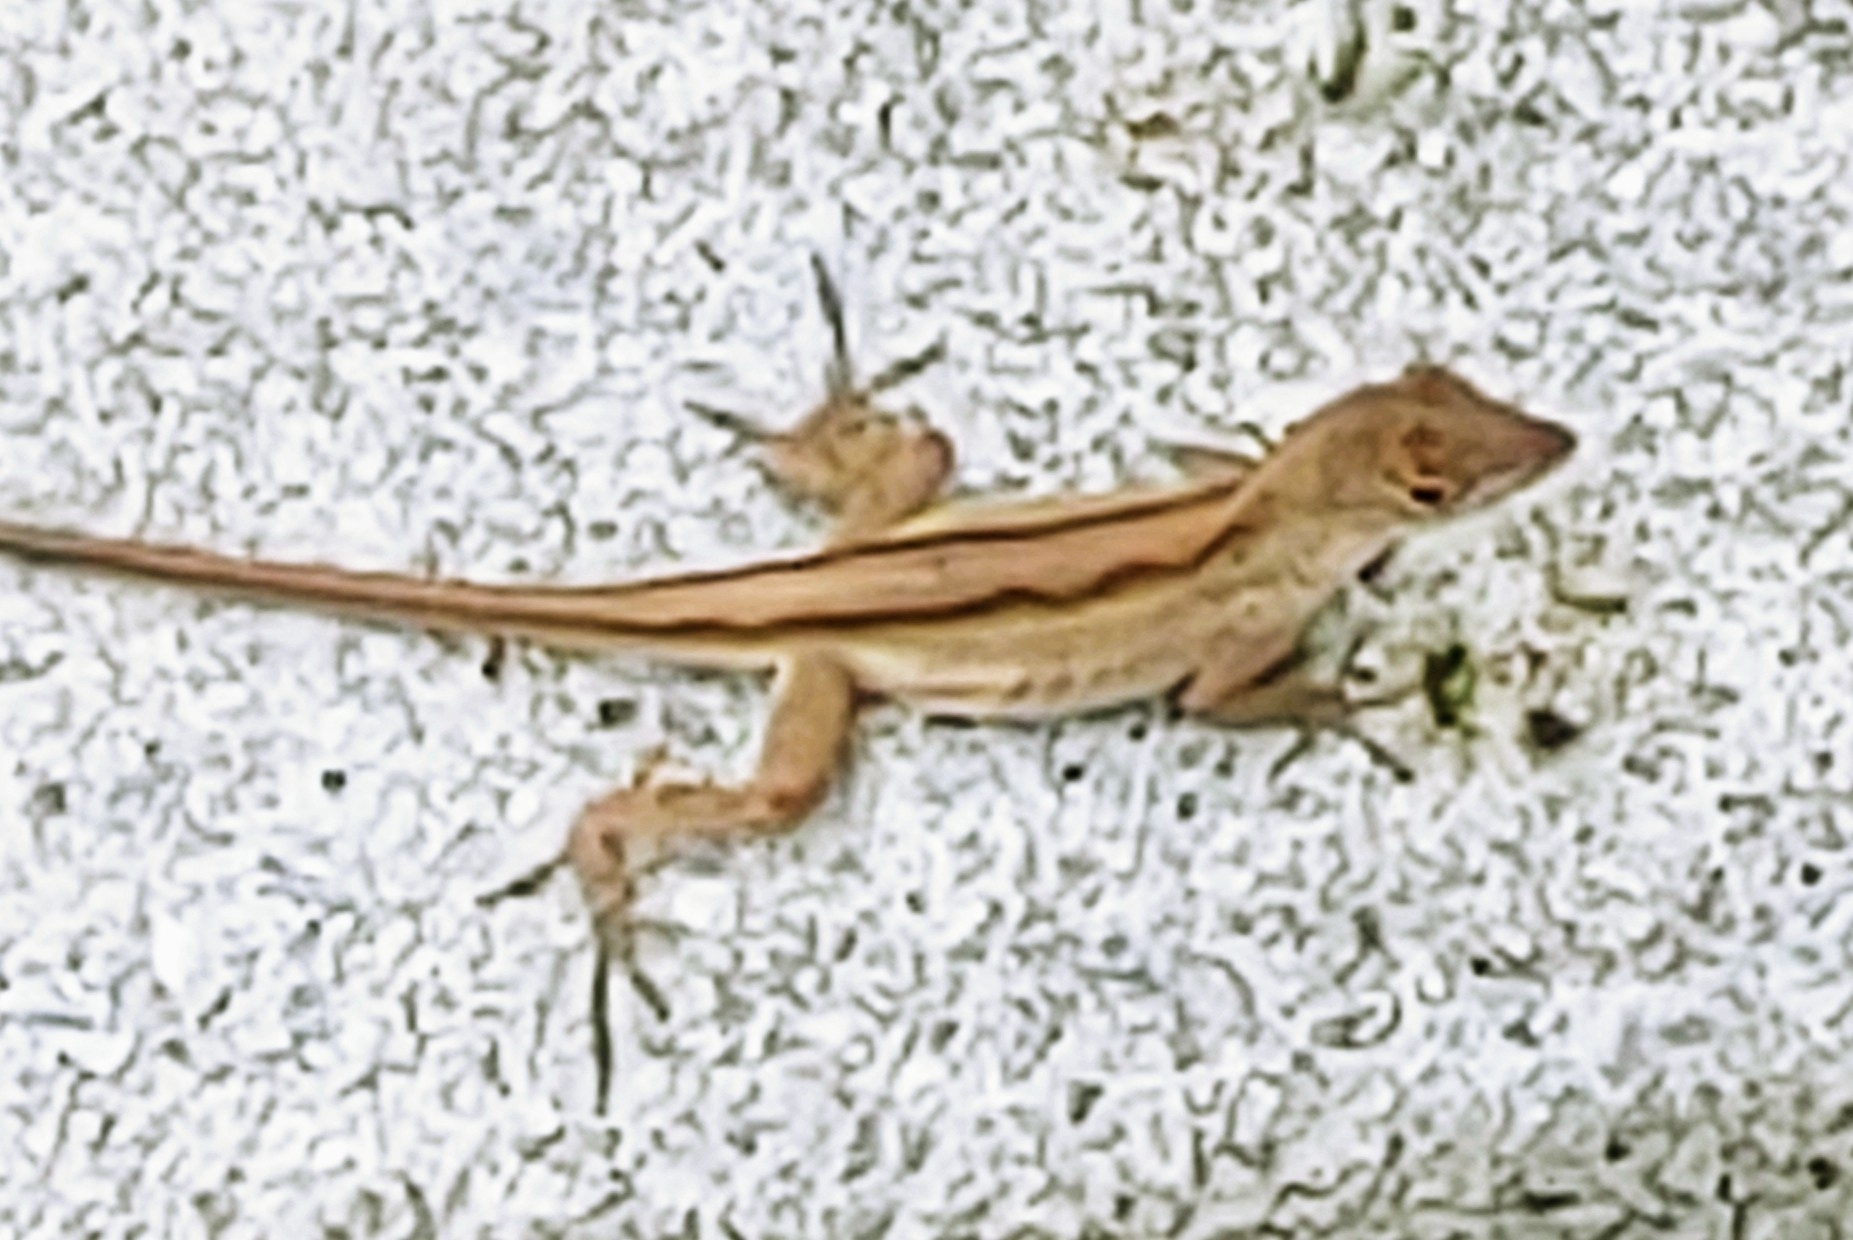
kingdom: Animalia
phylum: Chordata
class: Squamata
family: Dactyloidae
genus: Anolis
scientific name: Anolis sagrei
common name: Brown anole
